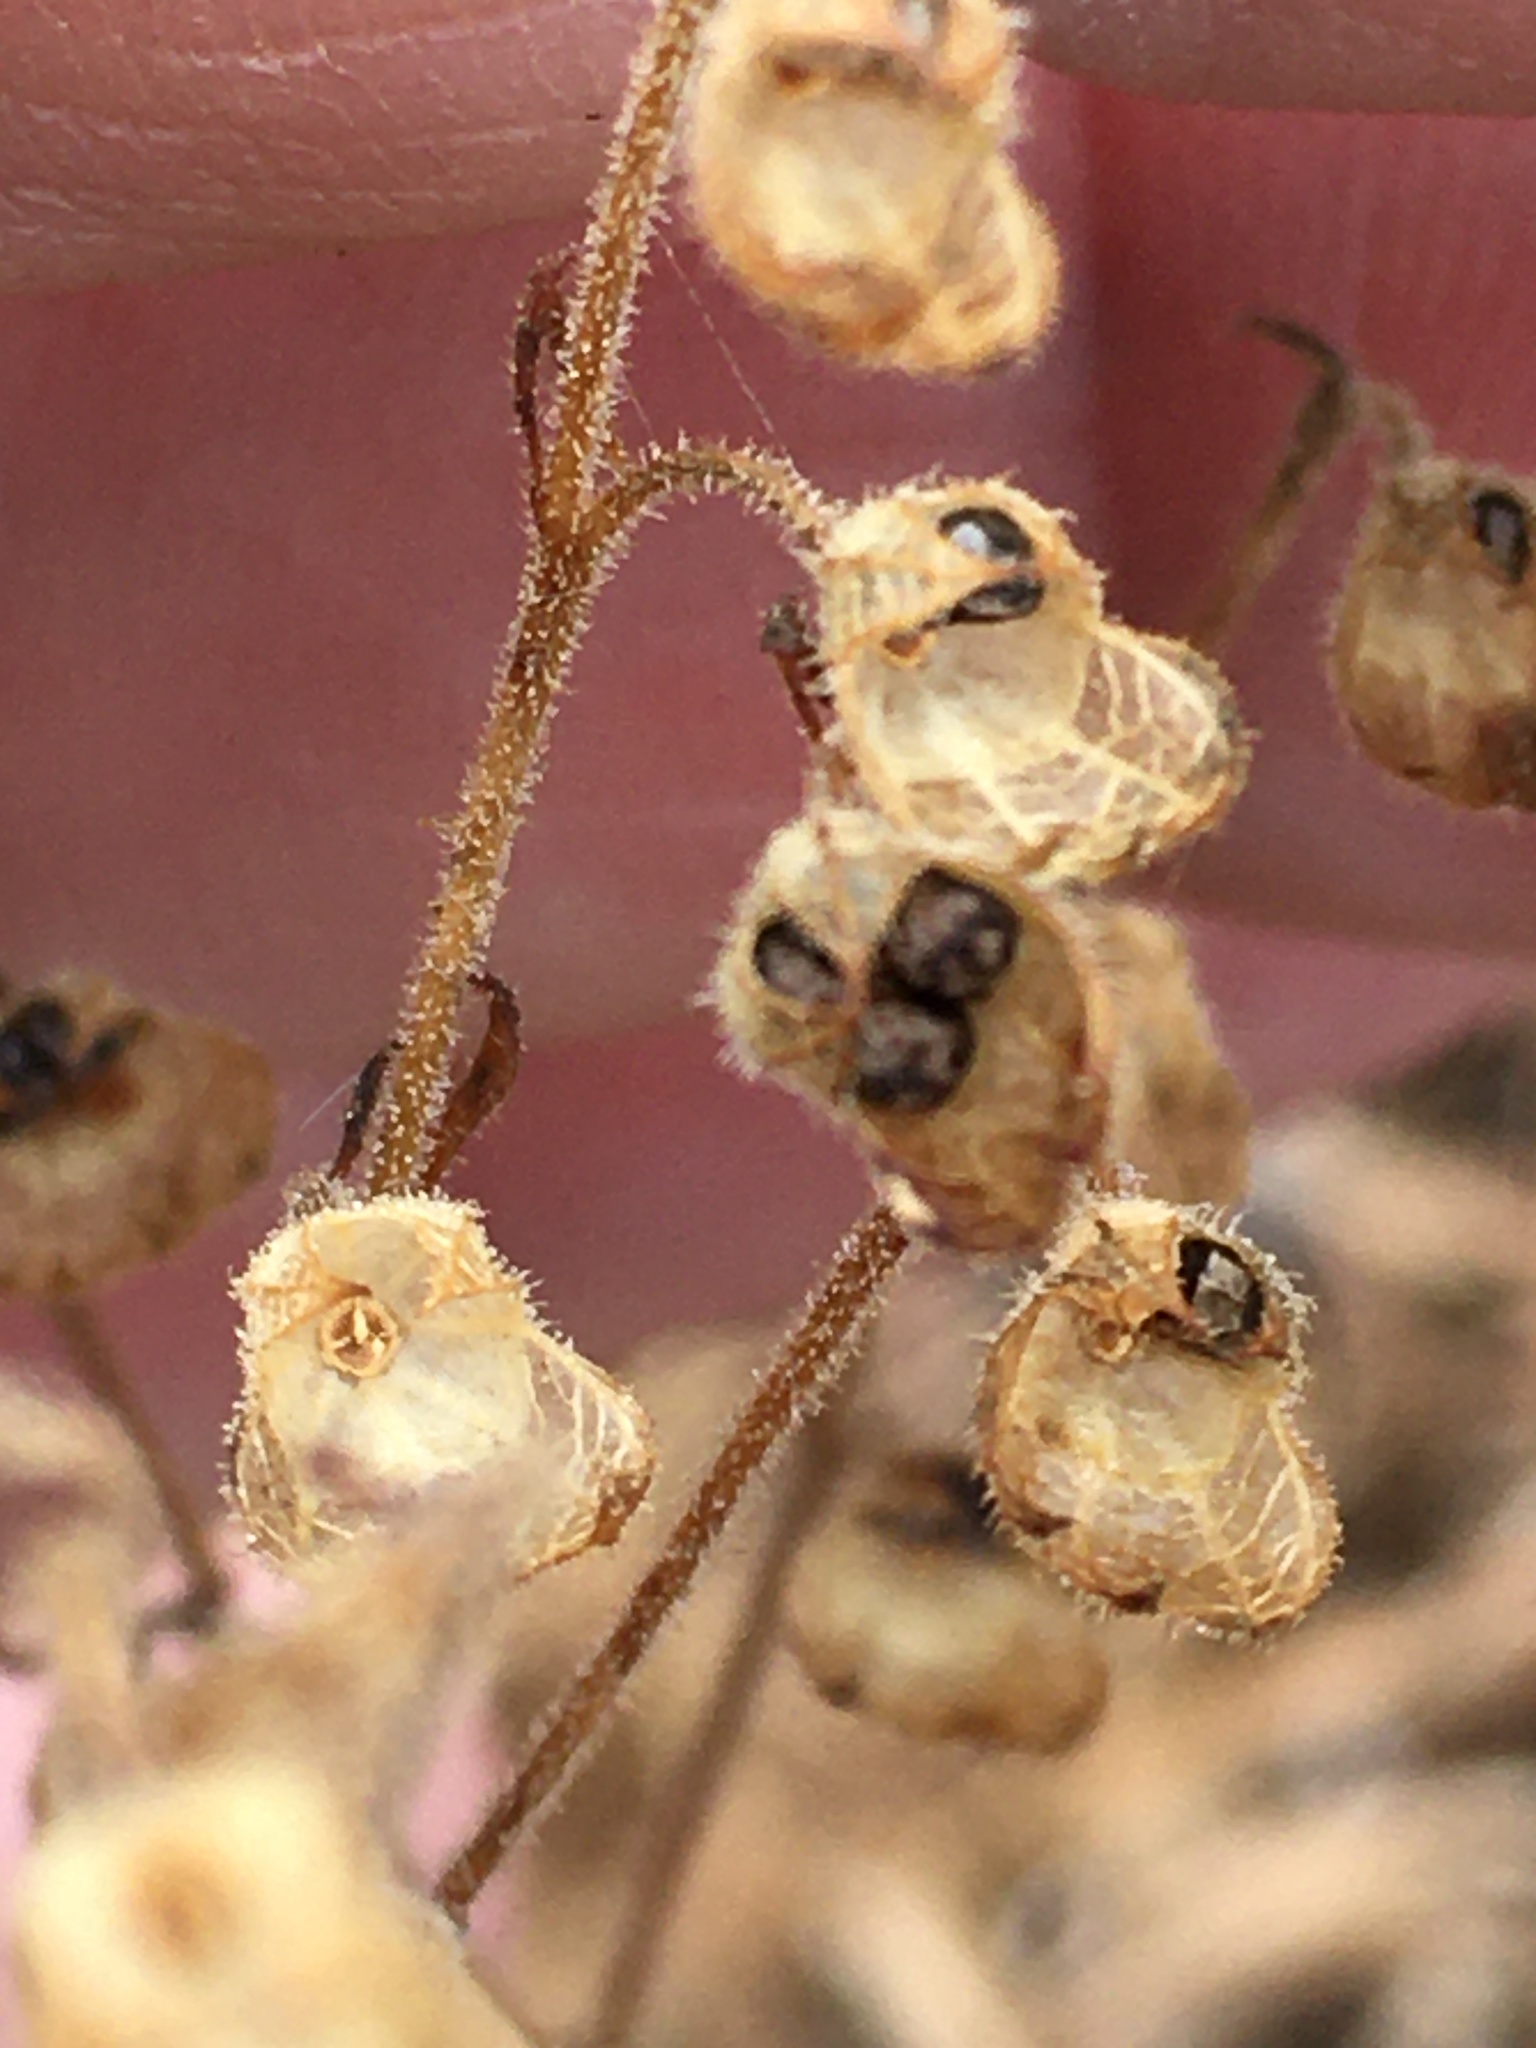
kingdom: Plantae
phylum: Tracheophyta
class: Magnoliopsida
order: Lamiales
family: Lamiaceae
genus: Trichostema
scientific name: Trichostema dichotomum
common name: Bastard pennyroyal
